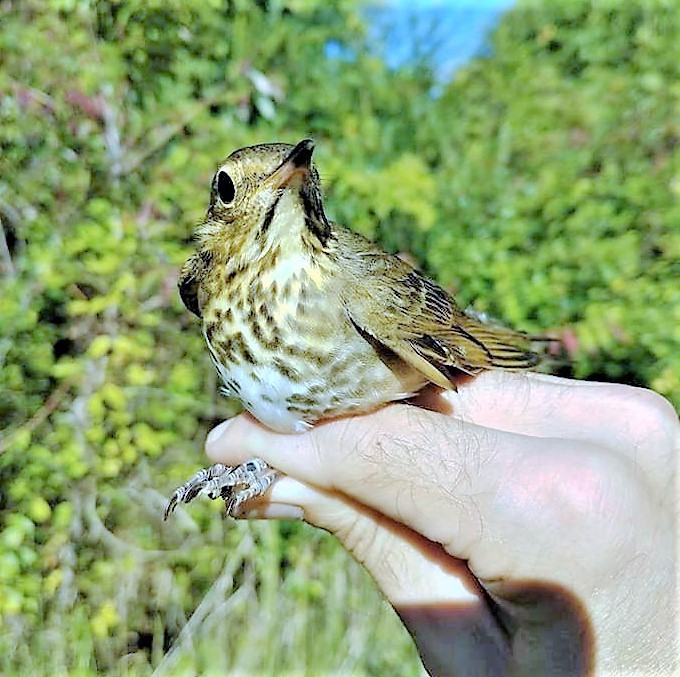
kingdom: Animalia
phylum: Chordata
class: Aves
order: Passeriformes
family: Turdidae
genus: Catharus
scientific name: Catharus ustulatus
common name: Swainson's thrush
